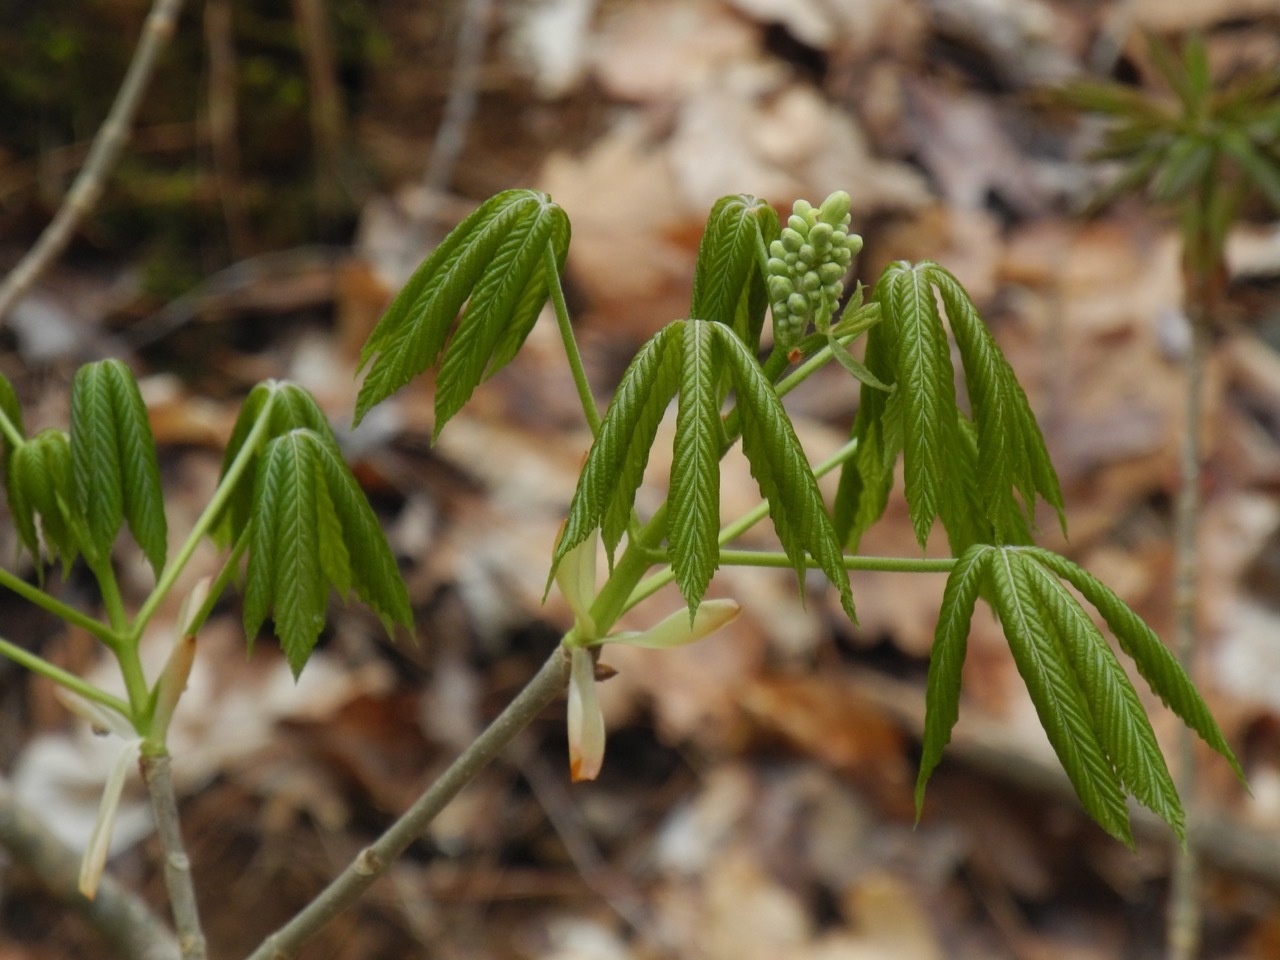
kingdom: Plantae
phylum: Tracheophyta
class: Magnoliopsida
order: Sapindales
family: Sapindaceae
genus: Aesculus
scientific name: Aesculus sylvatica
